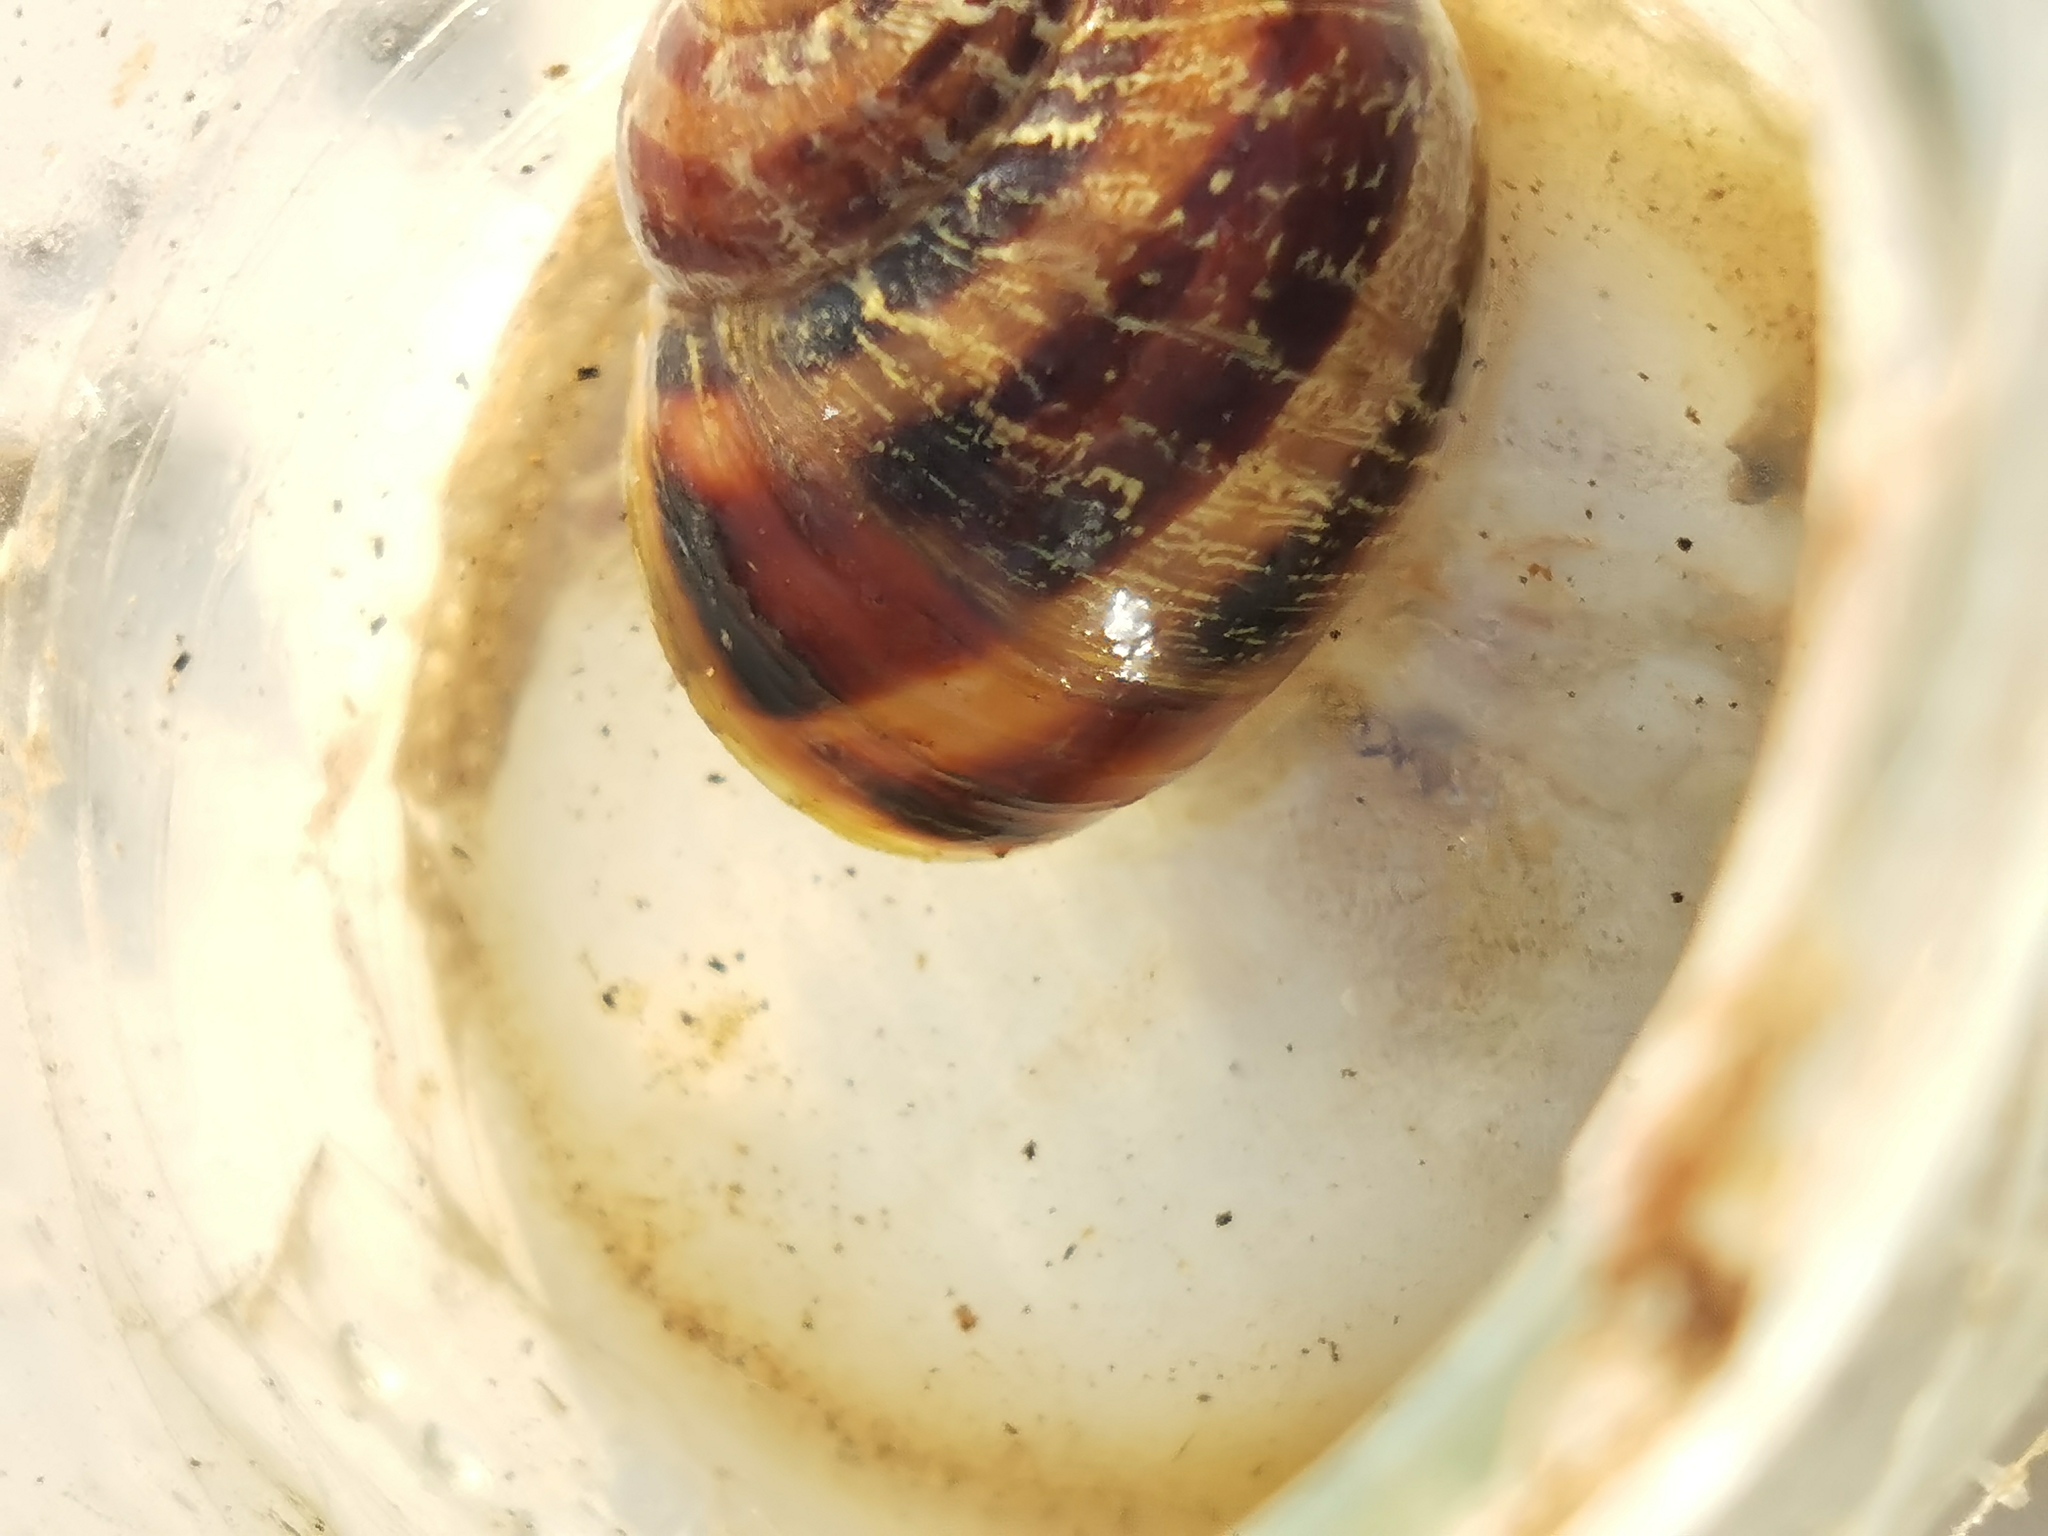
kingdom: Animalia
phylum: Mollusca
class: Gastropoda
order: Stylommatophora
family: Helicidae
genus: Cornu
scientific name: Cornu aspersum
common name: Brown garden snail
